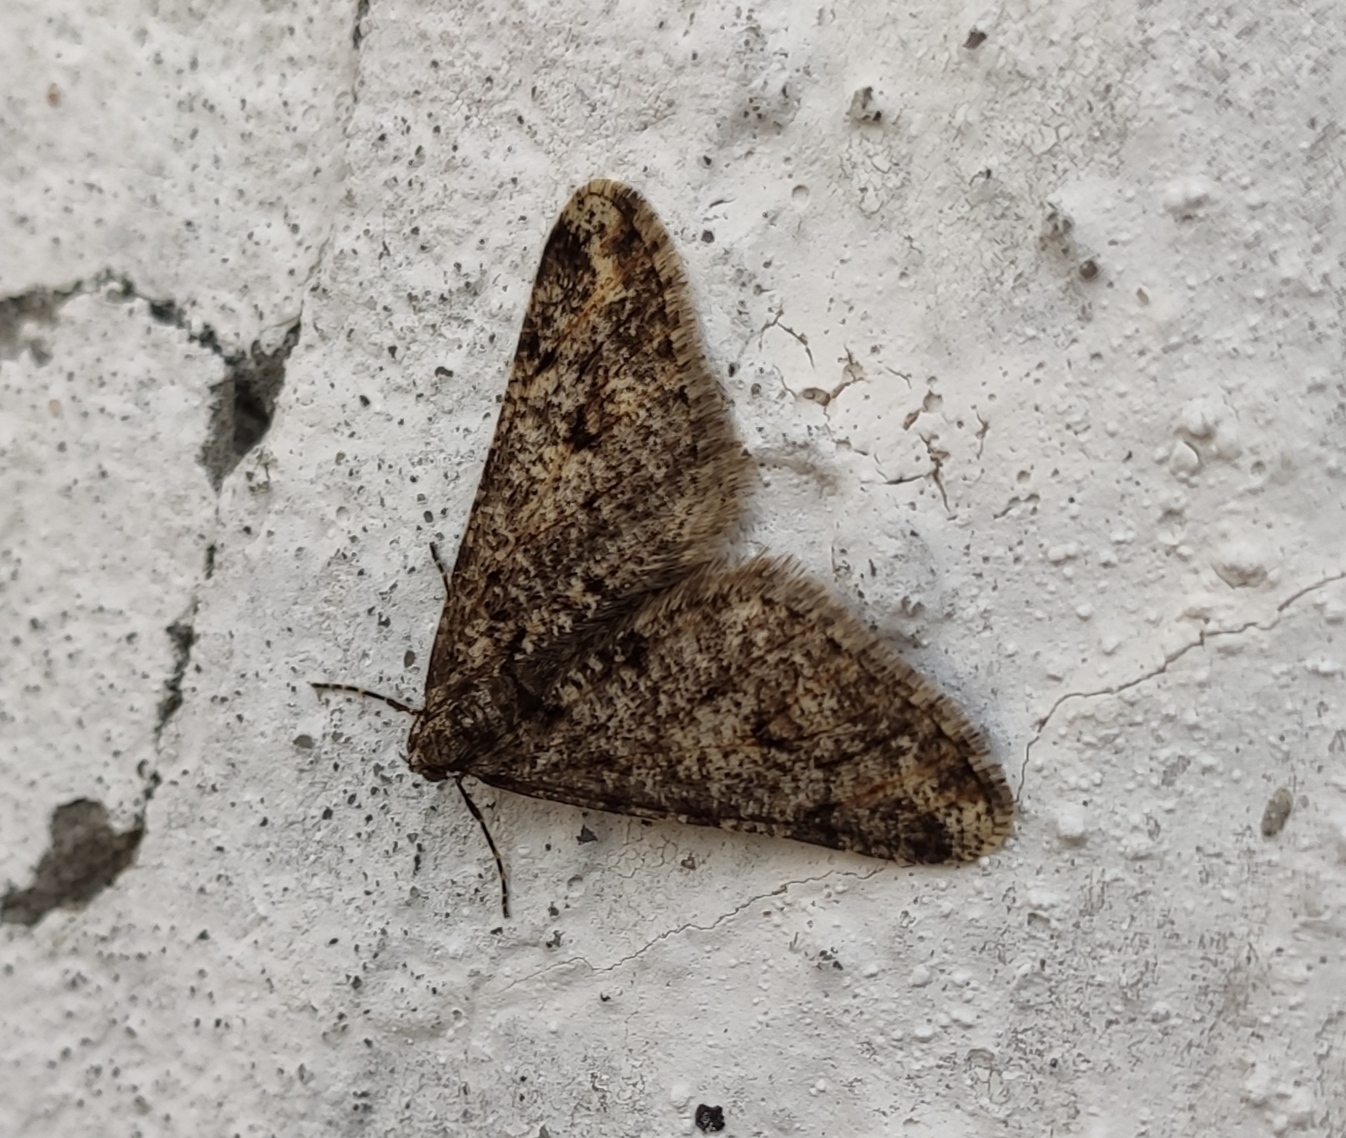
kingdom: Animalia
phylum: Arthropoda
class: Insecta
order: Lepidoptera
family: Geometridae
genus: Agriopis
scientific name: Agriopis leucophaearia
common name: Spring usher
